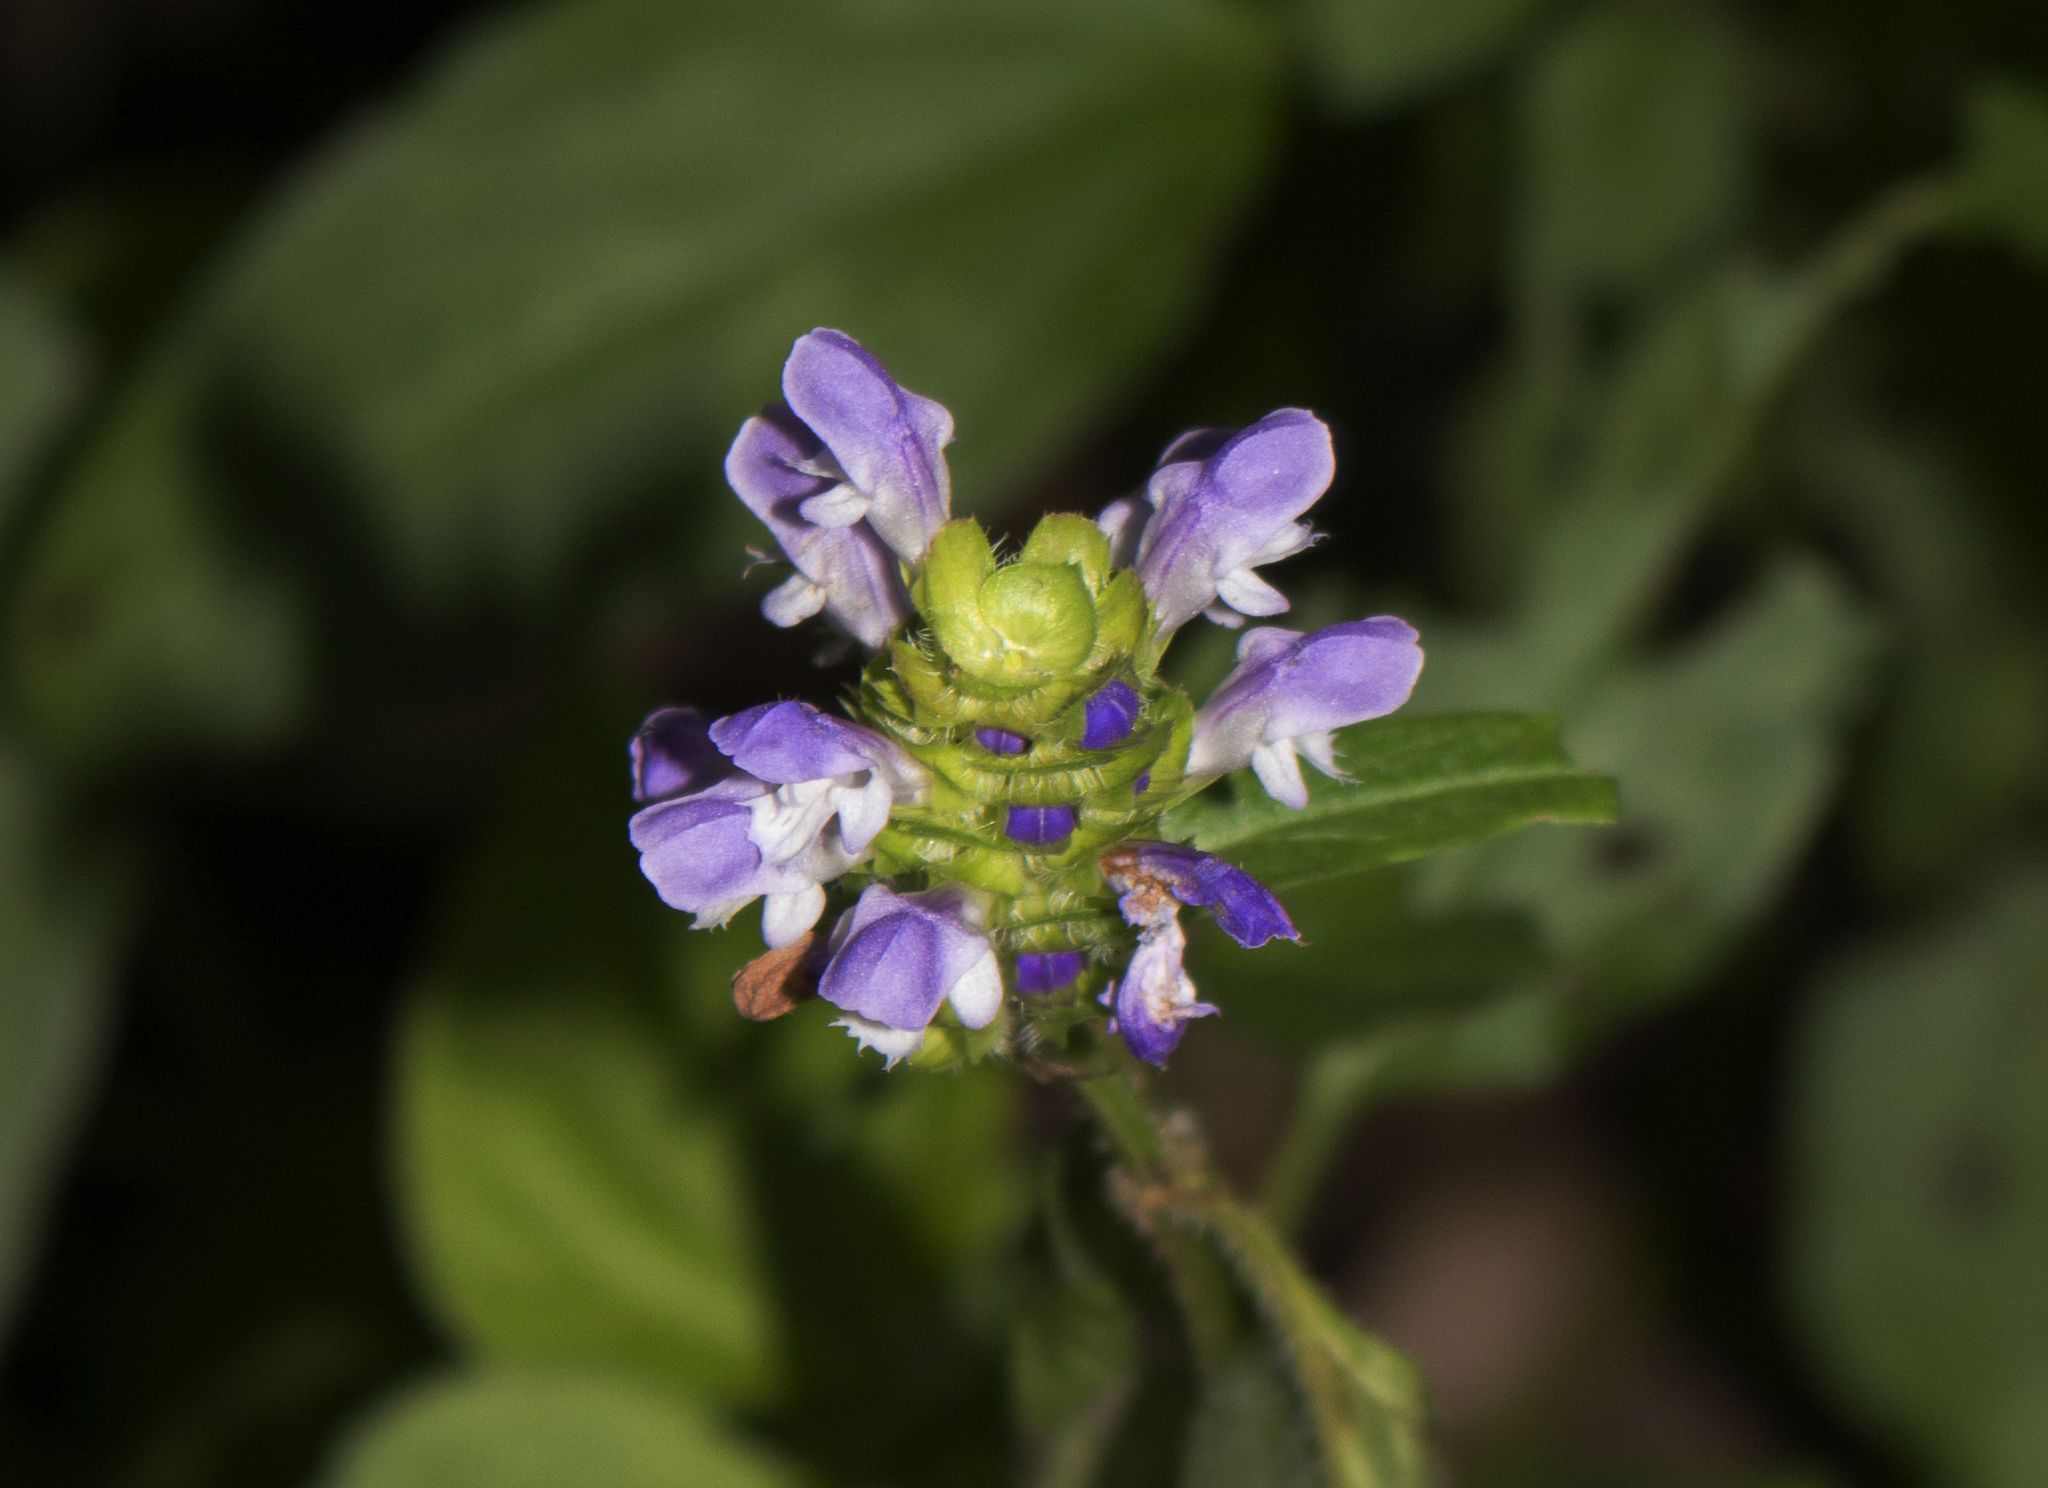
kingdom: Plantae
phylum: Tracheophyta
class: Magnoliopsida
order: Lamiales
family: Lamiaceae
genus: Prunella
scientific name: Prunella vulgaris
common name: Heal-all
